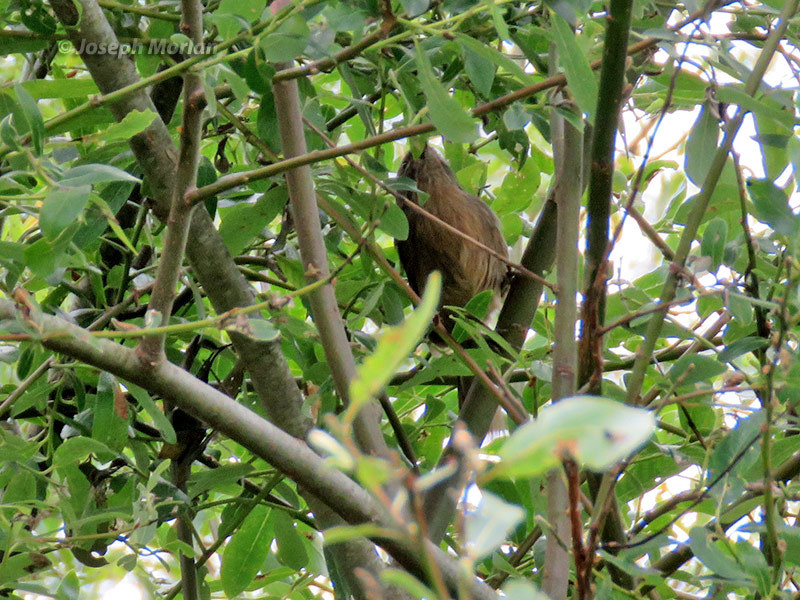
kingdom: Animalia
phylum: Chordata
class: Aves
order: Passeriformes
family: Sylviidae
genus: Chamaea
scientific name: Chamaea fasciata
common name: Wrentit
